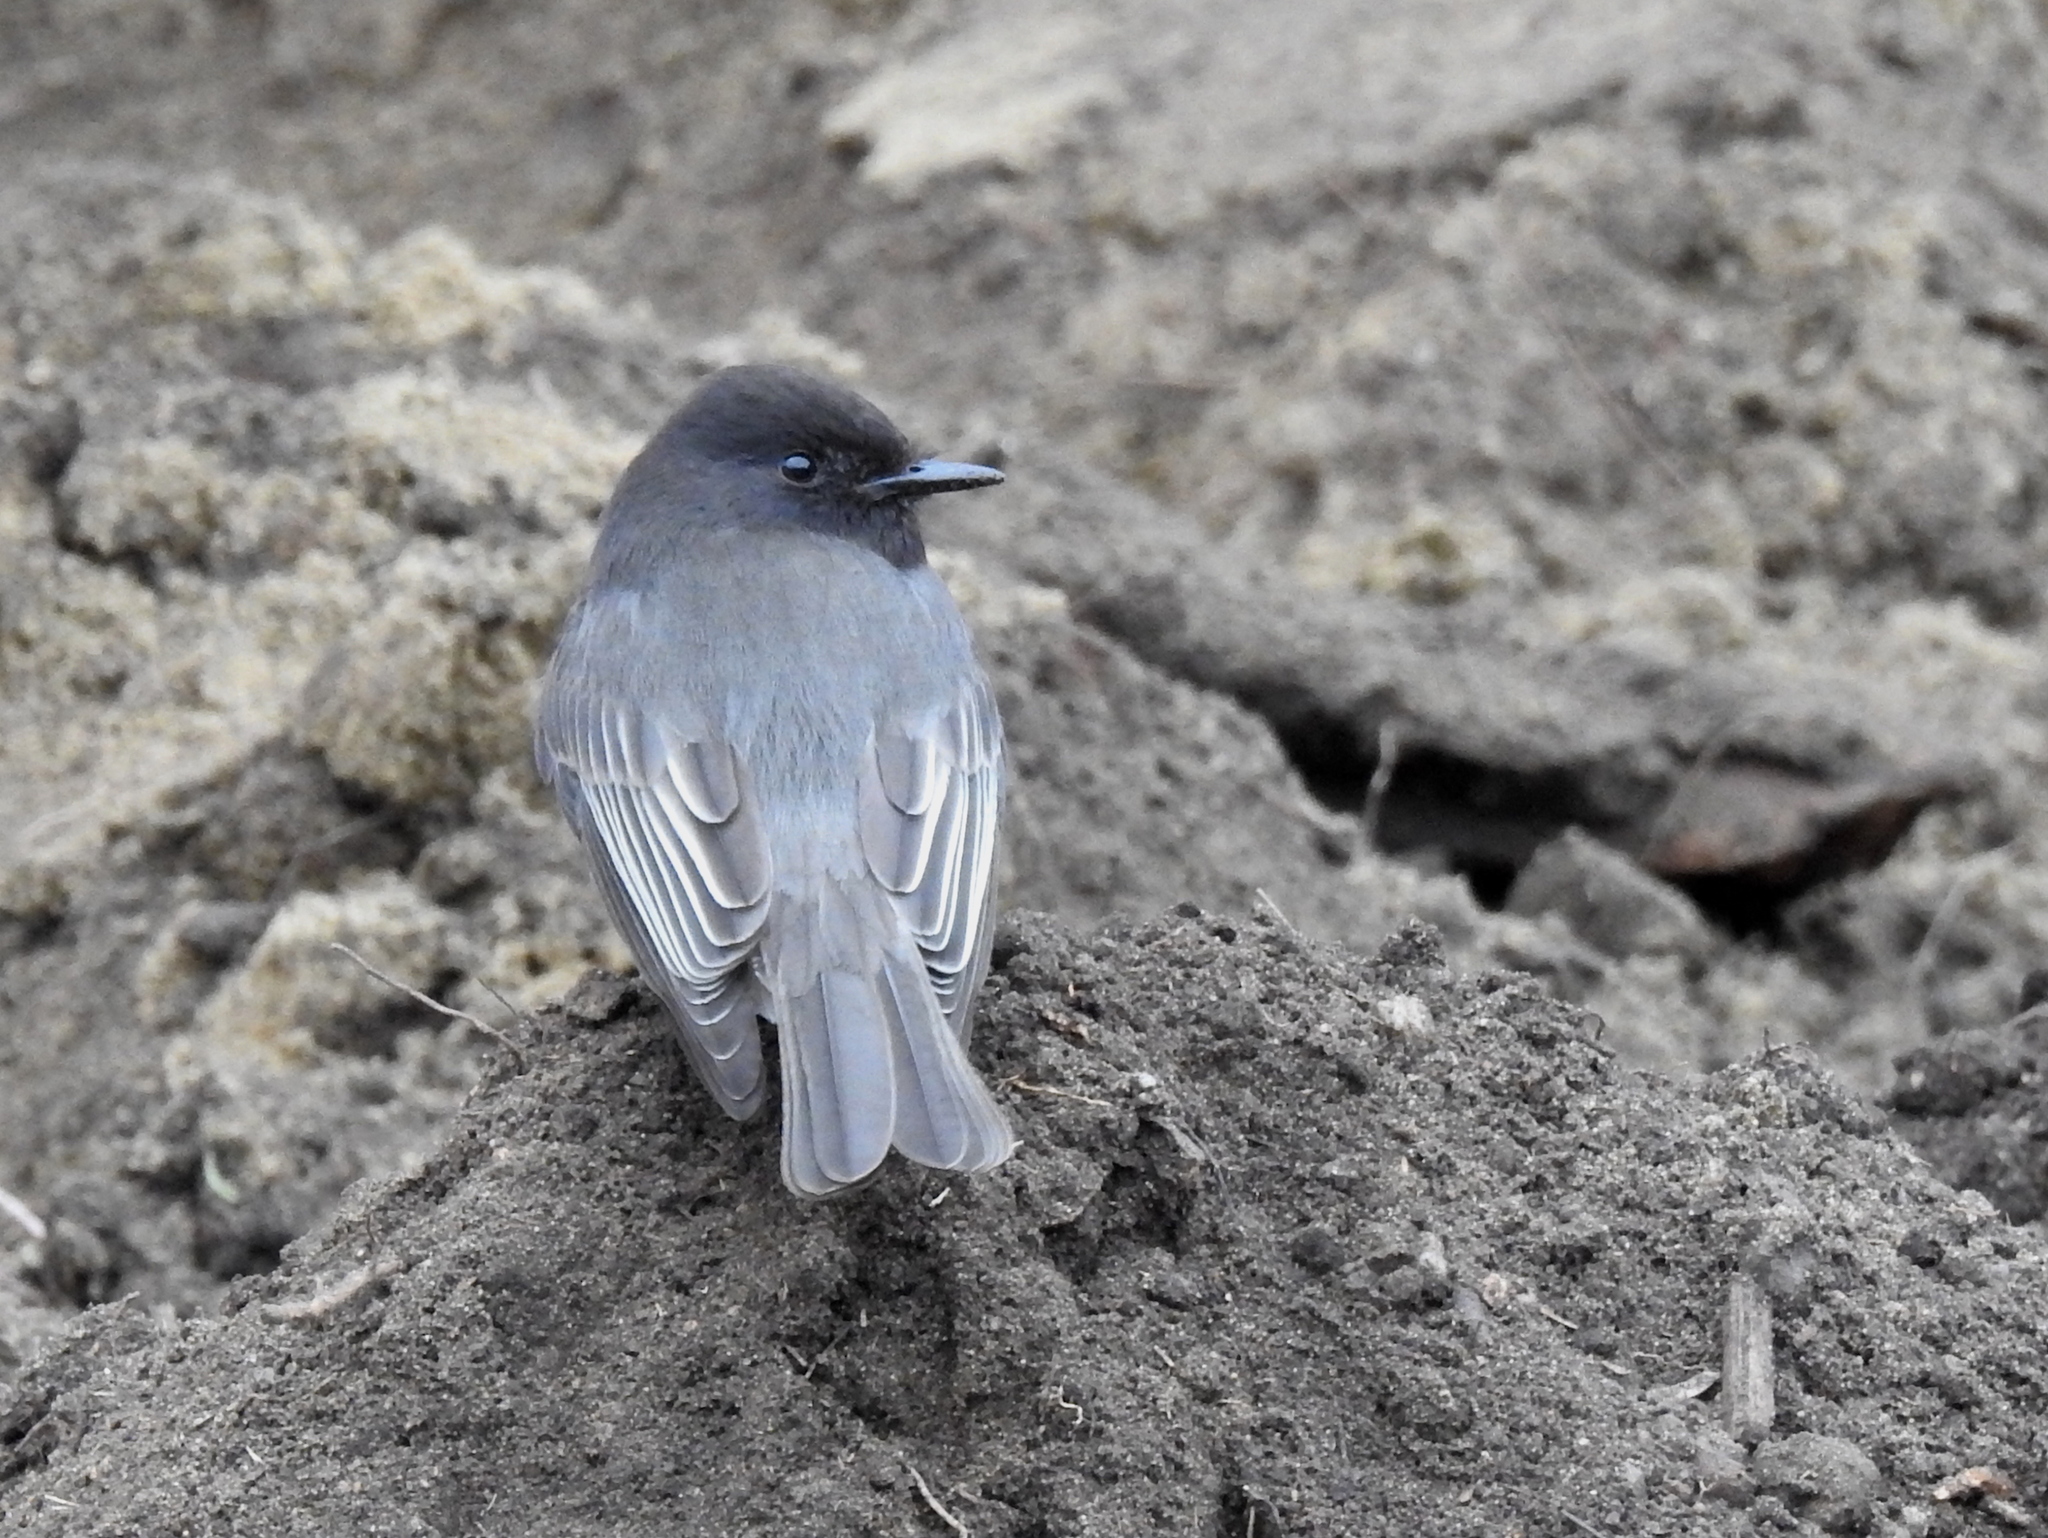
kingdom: Animalia
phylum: Chordata
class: Aves
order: Passeriformes
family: Tyrannidae
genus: Sayornis
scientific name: Sayornis nigricans
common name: Black phoebe
